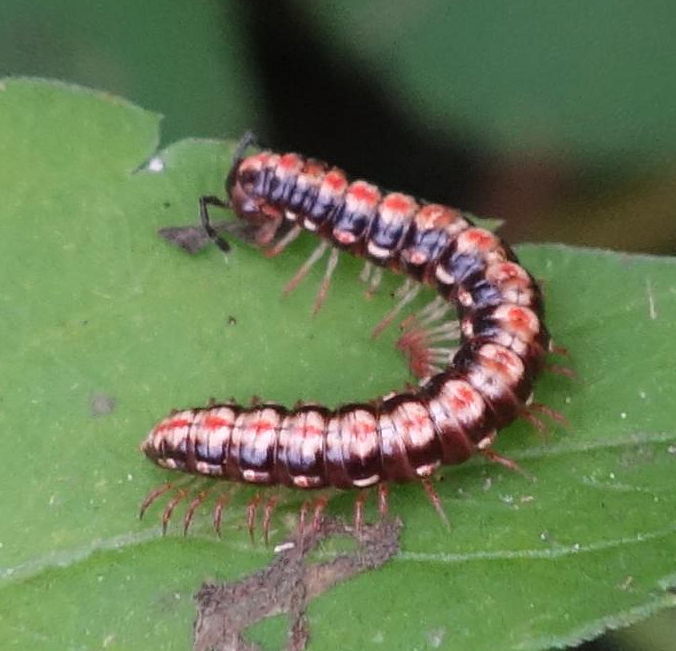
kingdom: Animalia
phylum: Arthropoda
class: Diplopoda
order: Polydesmida
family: Paradoxosomatidae
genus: Helicorthomorpha
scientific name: Helicorthomorpha holstii
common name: Millipede
